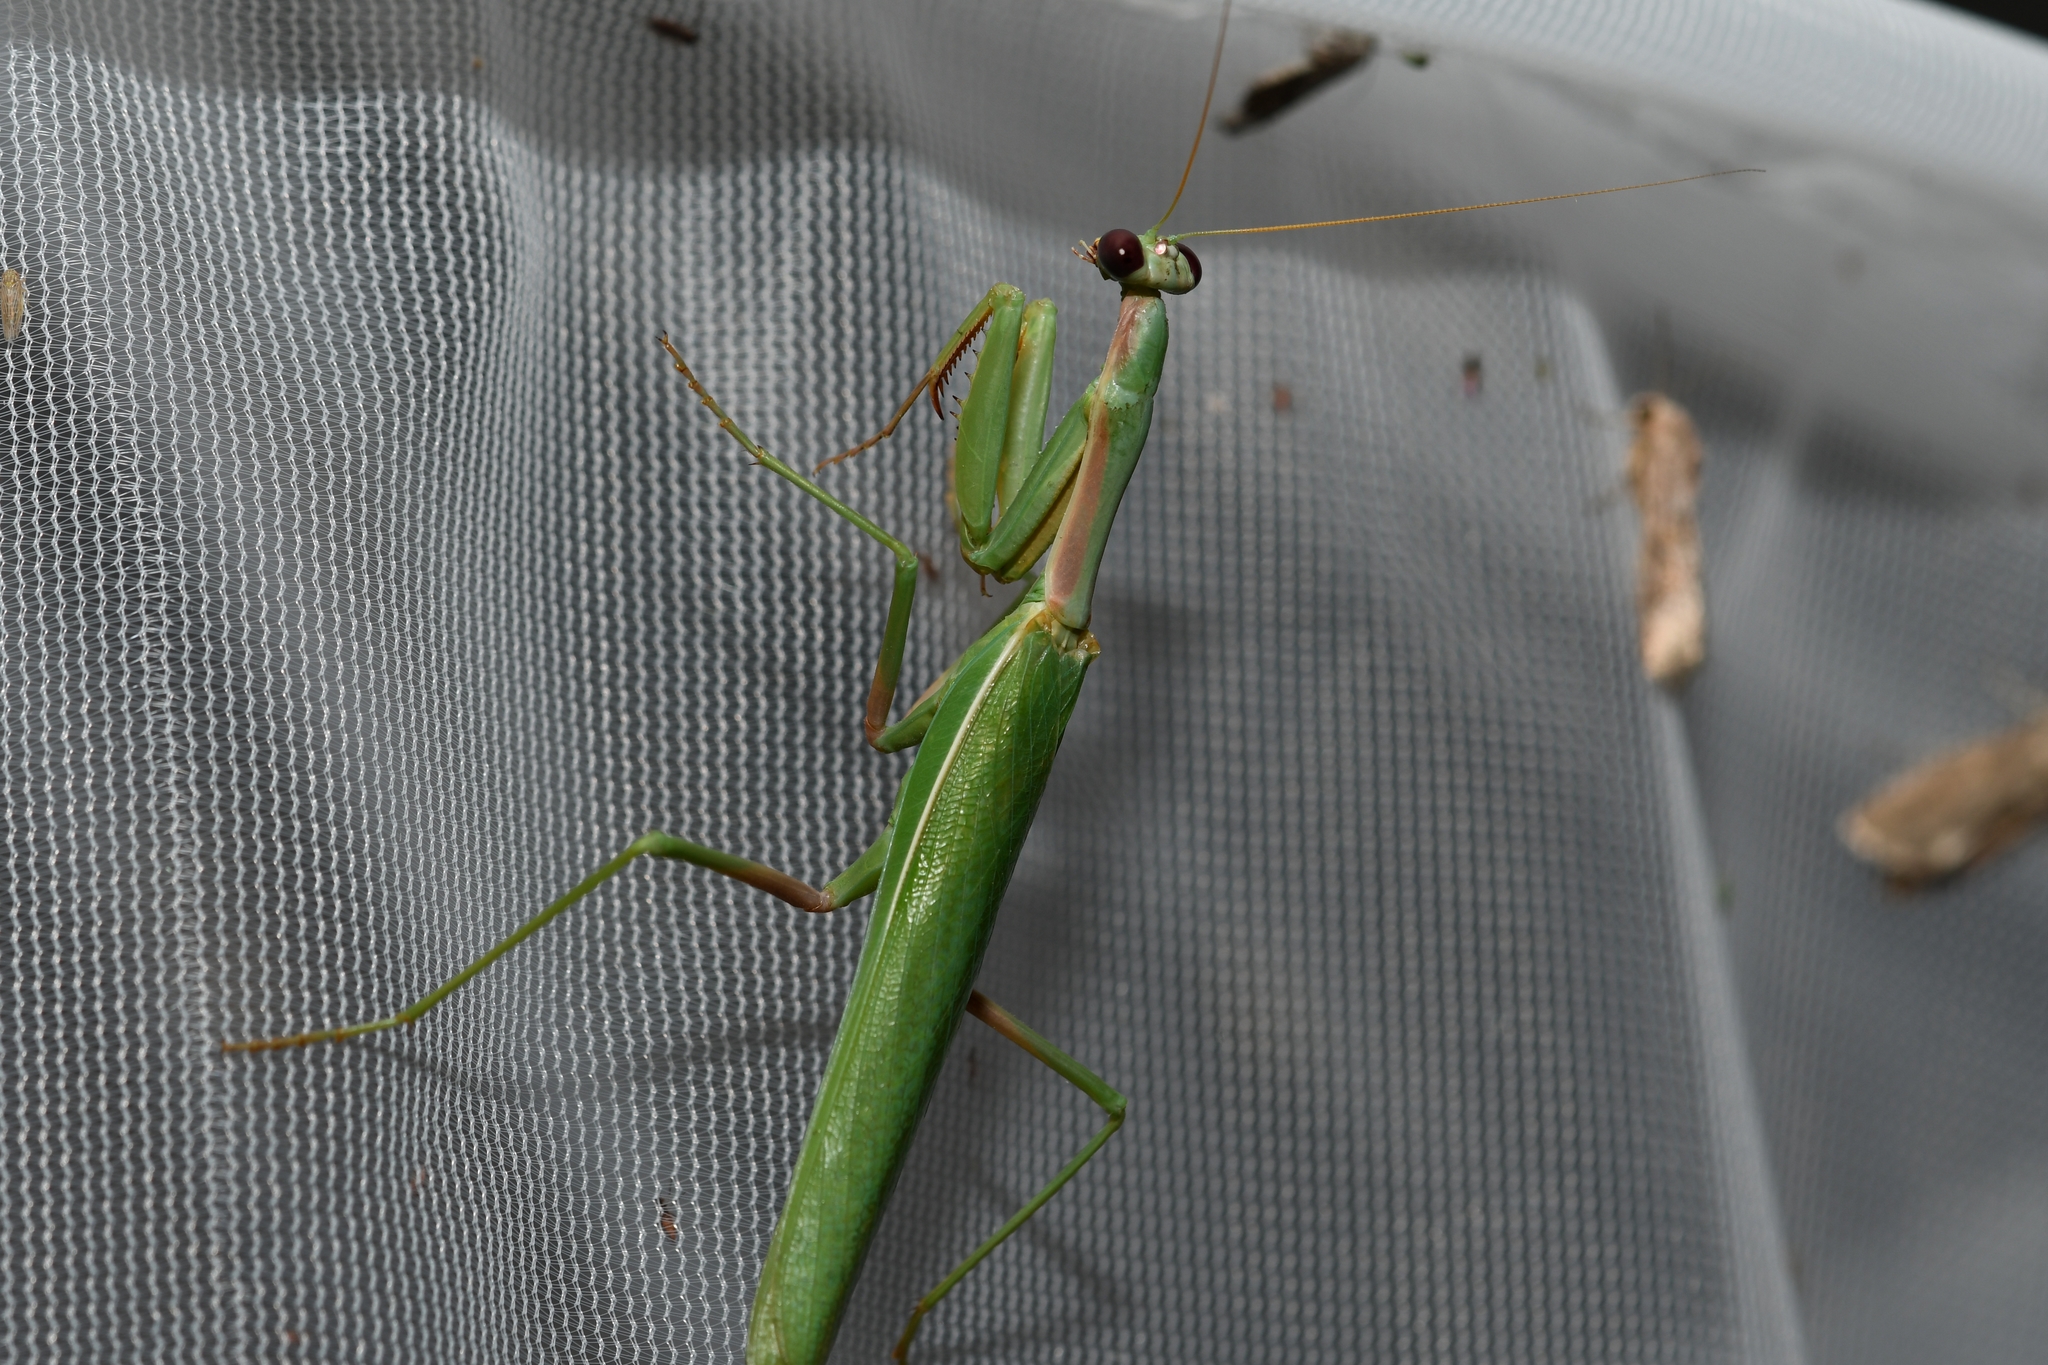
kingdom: Animalia
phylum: Arthropoda
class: Insecta
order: Mantodea
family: Eremiaphilidae
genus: Iris
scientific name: Iris oratoria
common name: Mediterranean mantis
